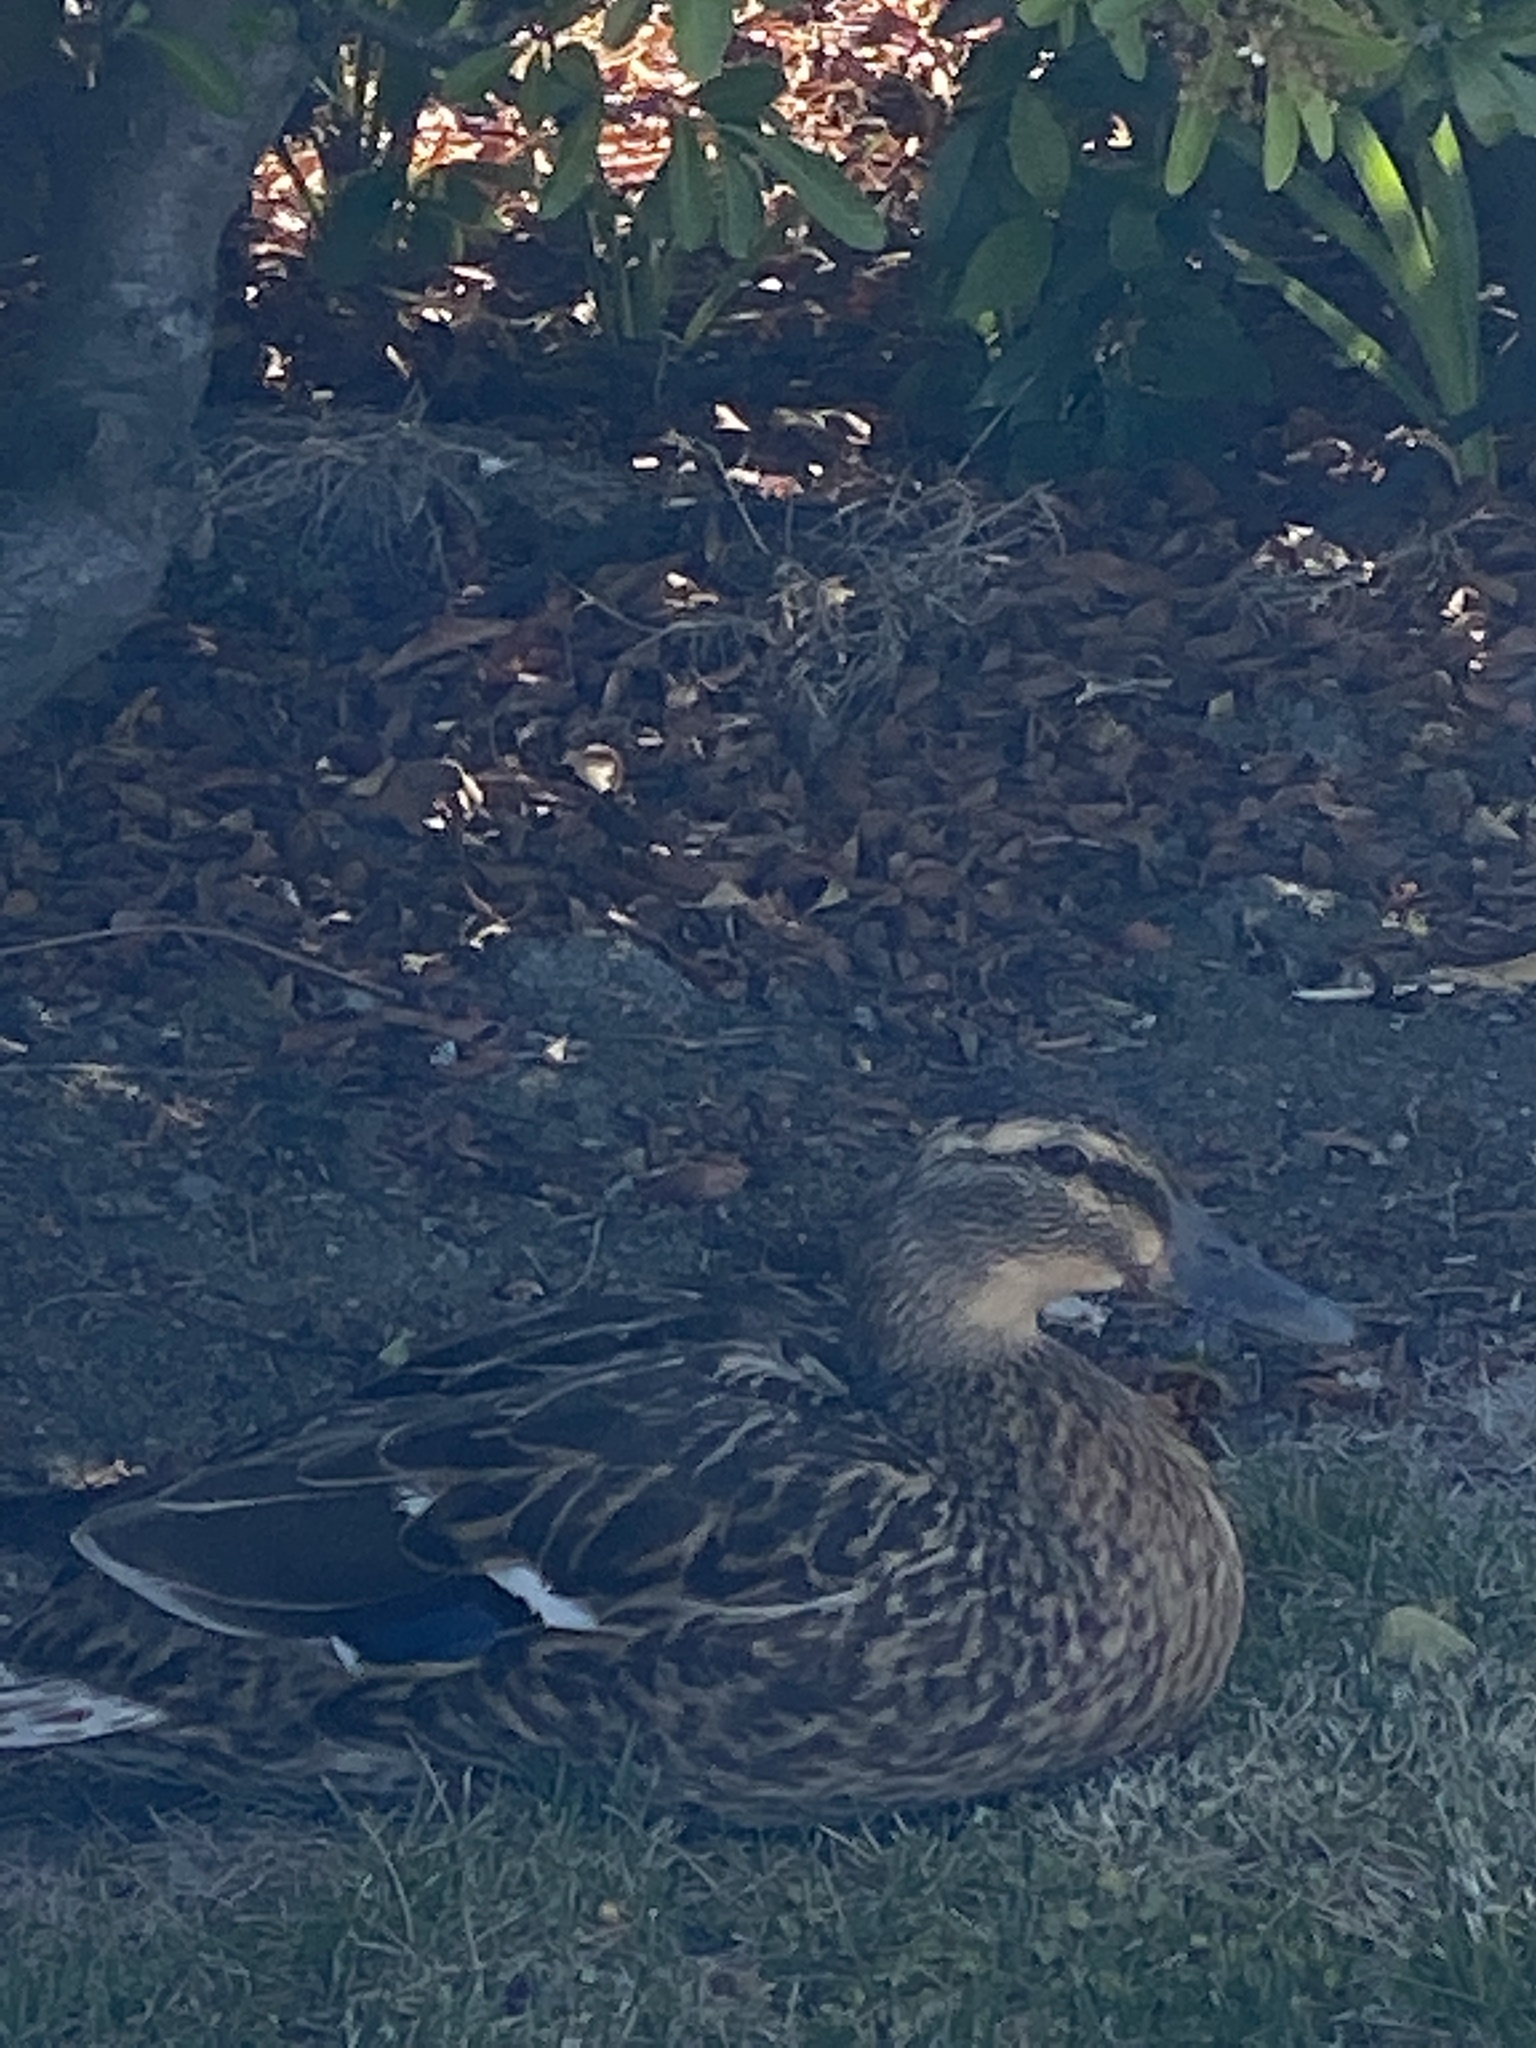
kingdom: Animalia
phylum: Chordata
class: Aves
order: Anseriformes
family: Anatidae
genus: Anas
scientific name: Anas platyrhynchos
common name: Mallard
